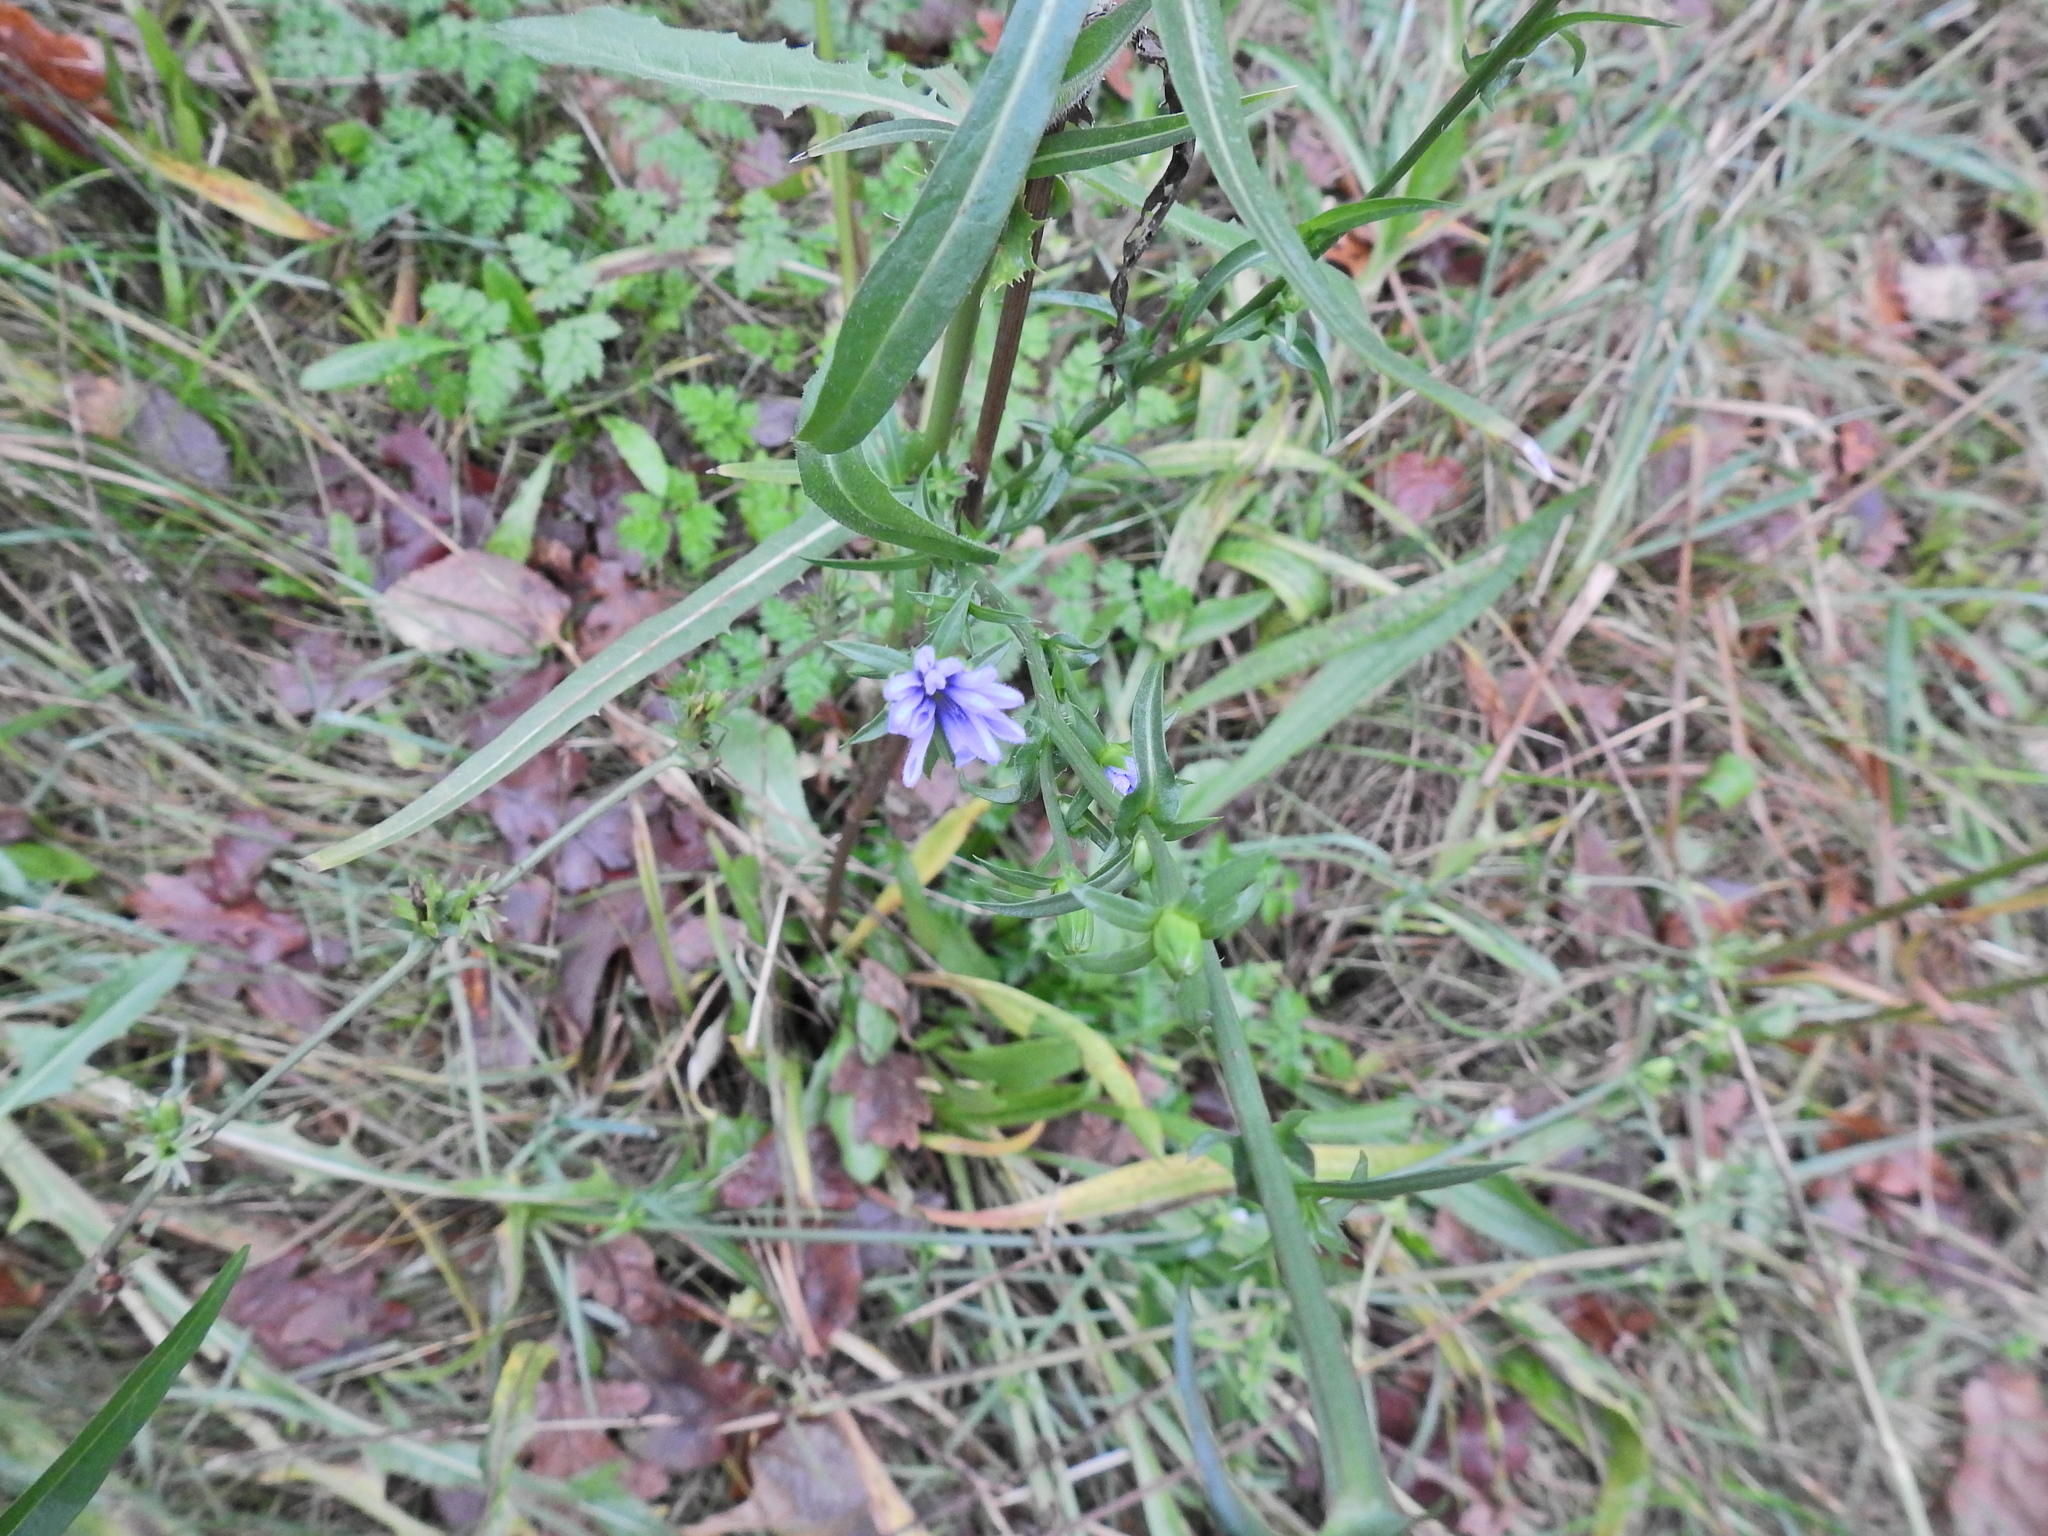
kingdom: Plantae
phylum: Tracheophyta
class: Magnoliopsida
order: Asterales
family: Asteraceae
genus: Cichorium
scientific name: Cichorium intybus
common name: Chicory
